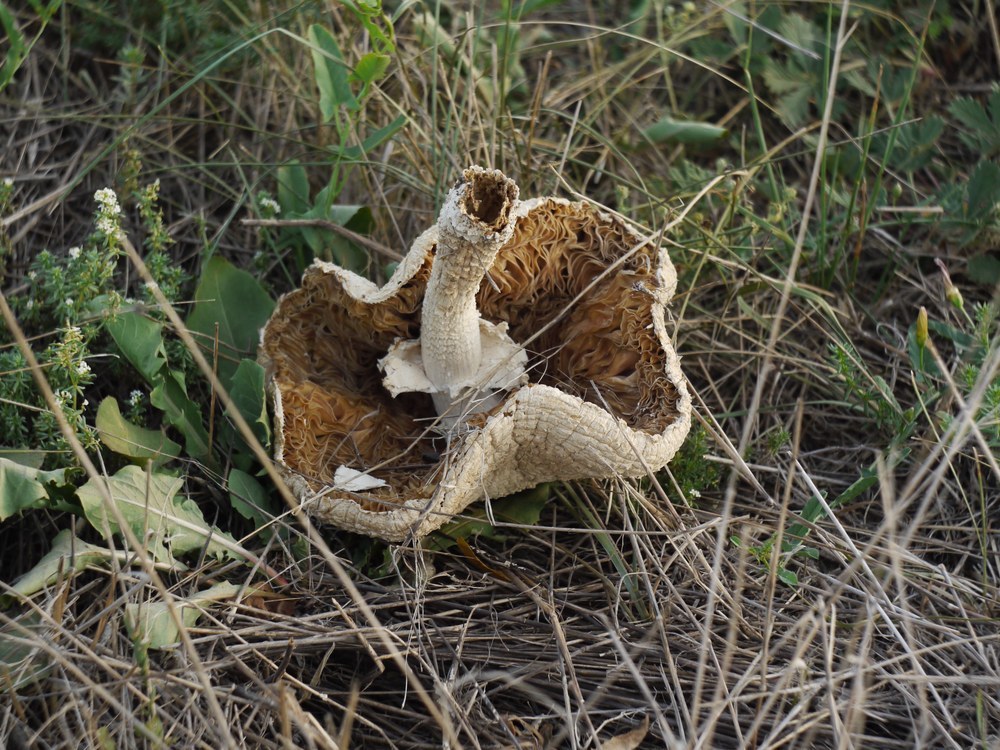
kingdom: Fungi
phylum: Basidiomycota
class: Agaricomycetes
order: Agaricales
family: Amanitaceae
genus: Amanita
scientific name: Amanita vittadinii
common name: Barefoot amanita
